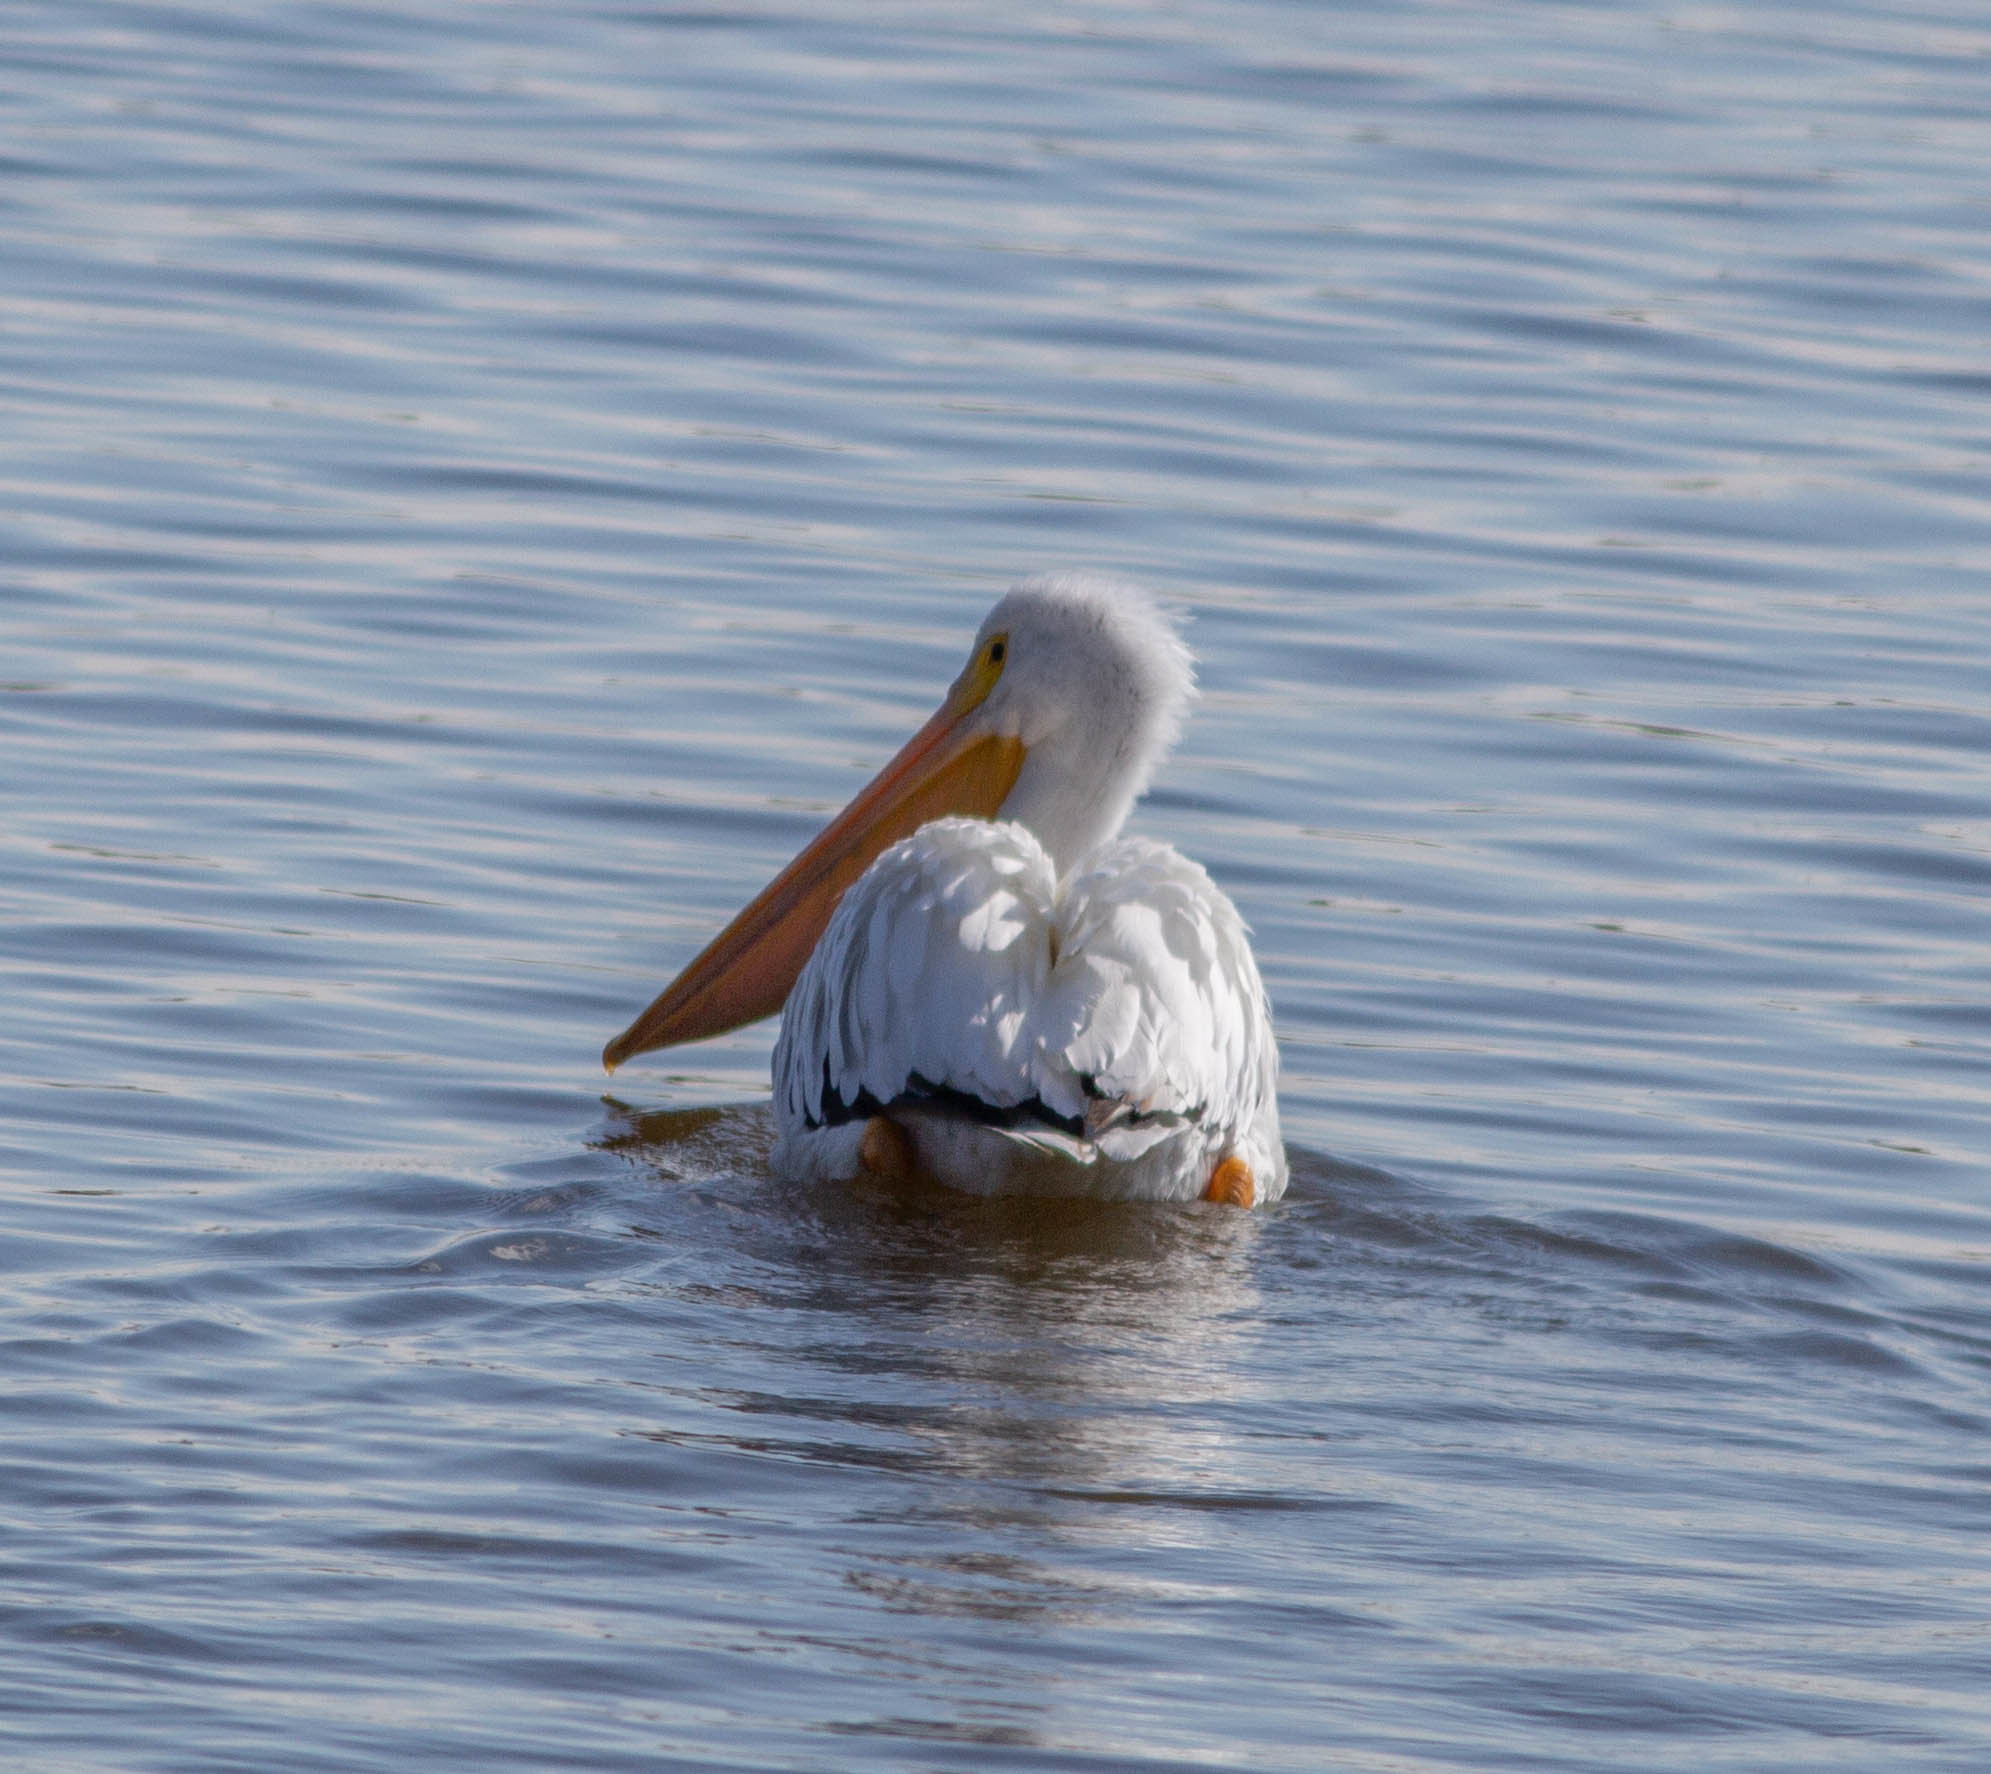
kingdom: Animalia
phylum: Chordata
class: Aves
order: Pelecaniformes
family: Pelecanidae
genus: Pelecanus
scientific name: Pelecanus erythrorhynchos
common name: American white pelican
